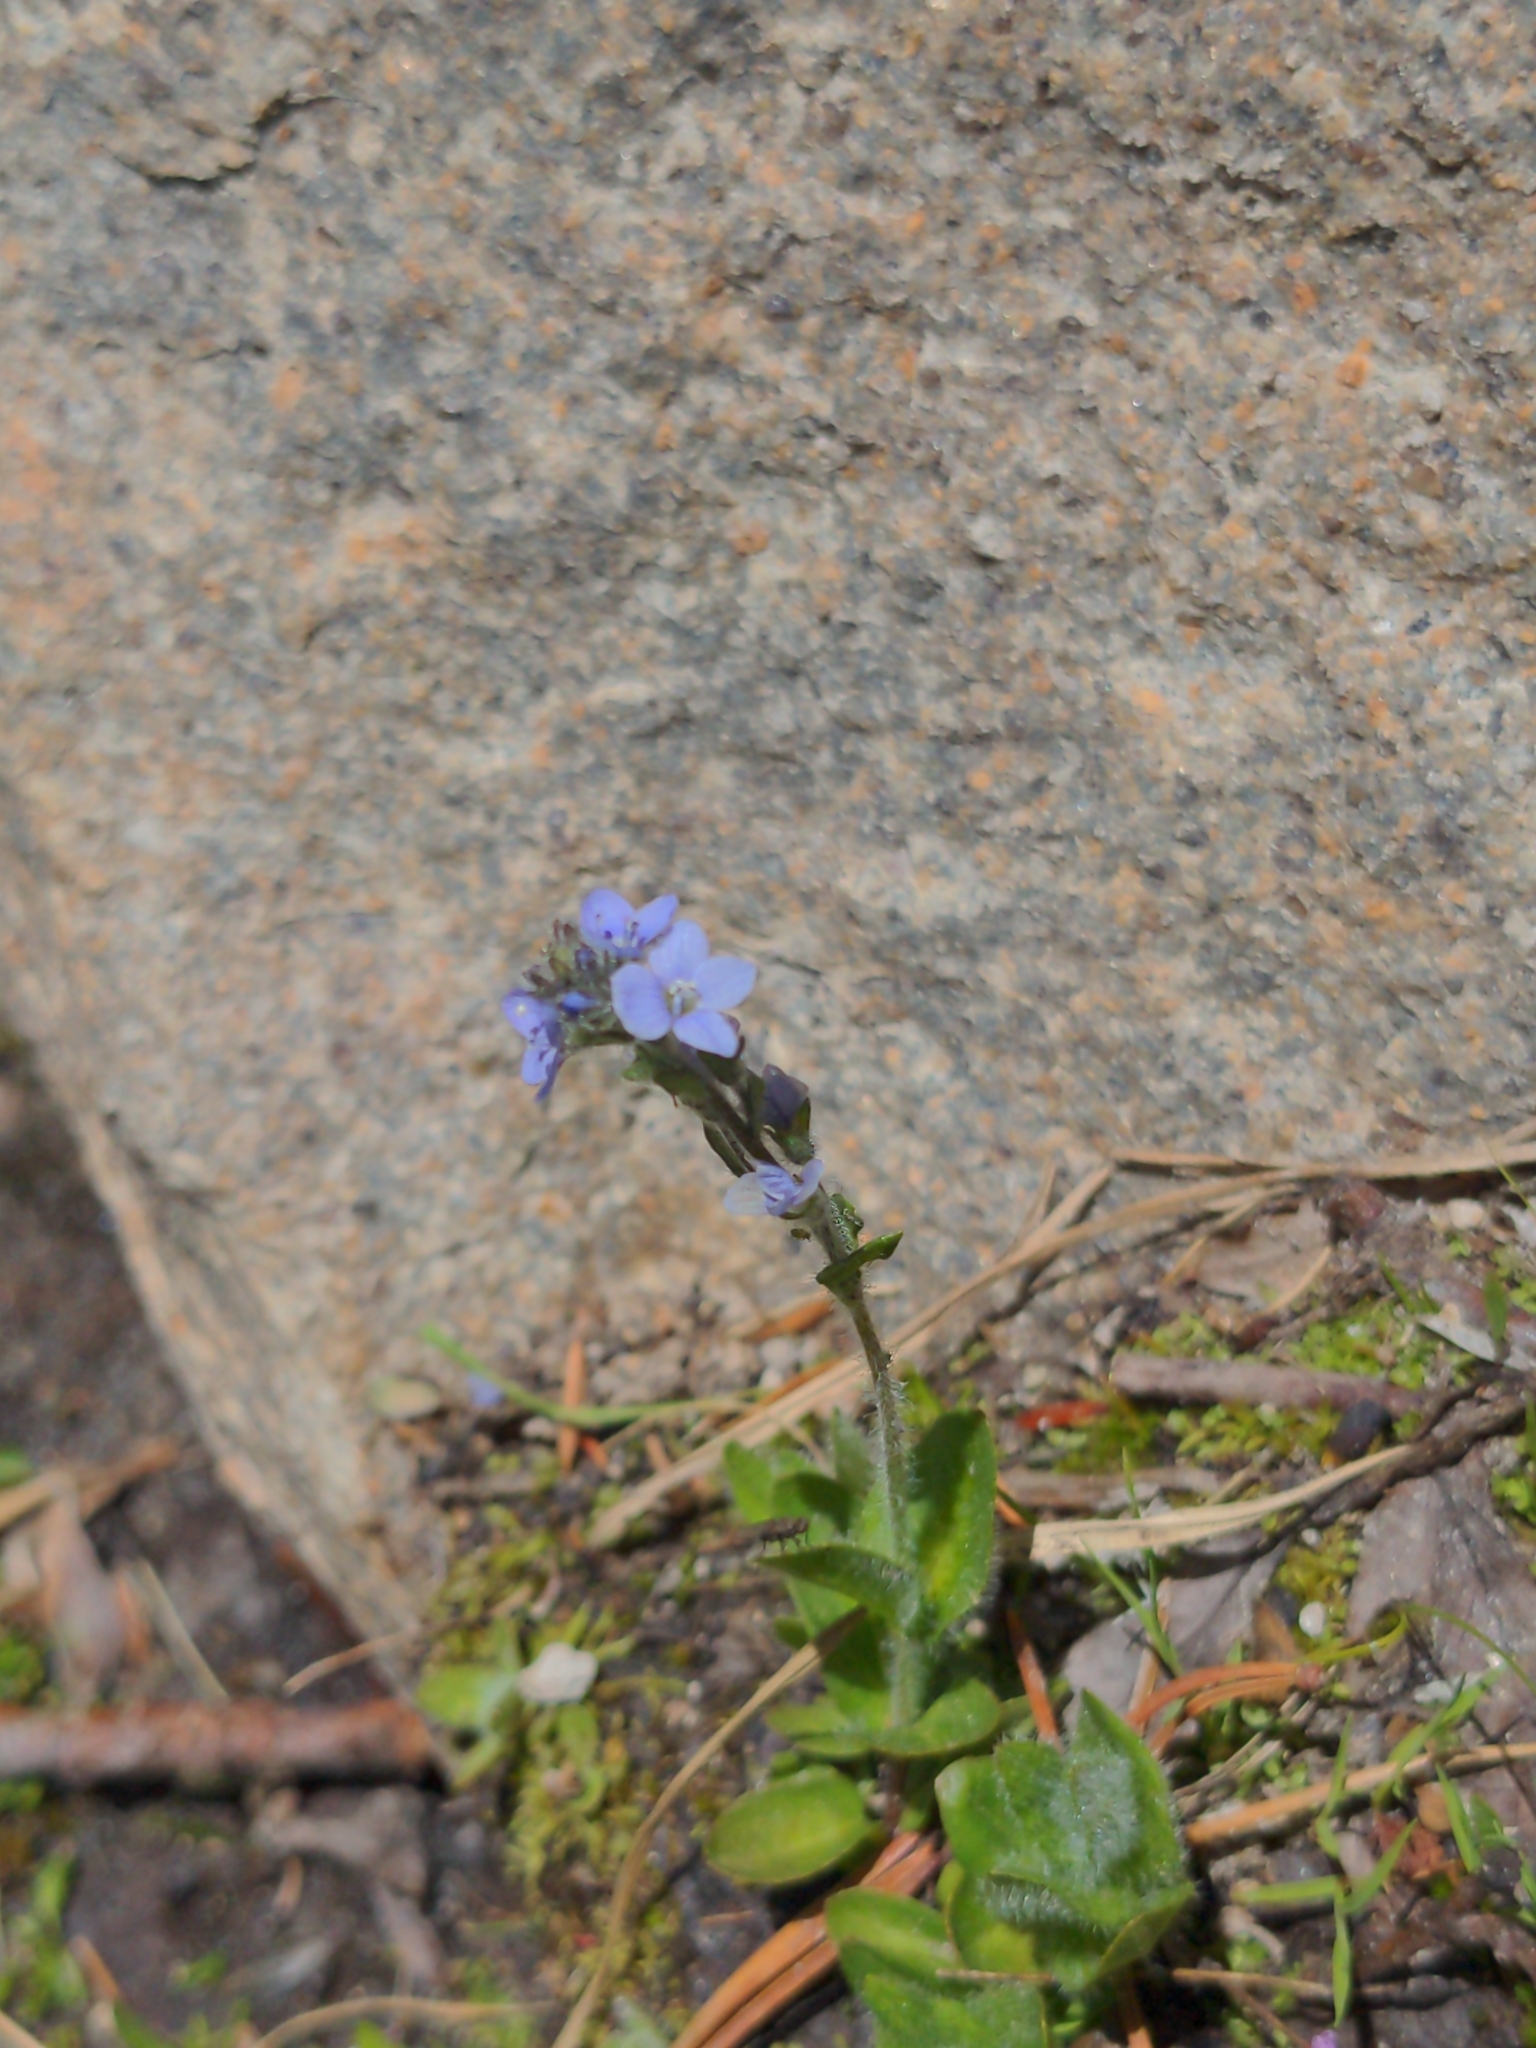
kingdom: Plantae
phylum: Tracheophyta
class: Magnoliopsida
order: Lamiales
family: Plantaginaceae
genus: Veronica
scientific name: Veronica wormskjoldii
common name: American alpine speedwell
